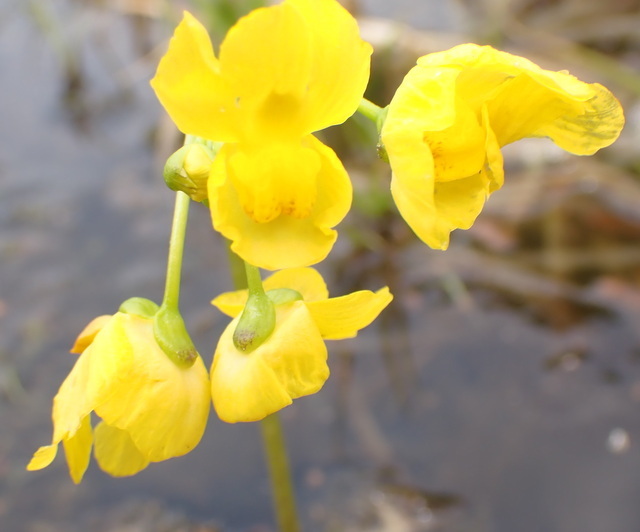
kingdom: Plantae
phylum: Tracheophyta
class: Magnoliopsida
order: Lamiales
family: Lentibulariaceae
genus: Utricularia
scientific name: Utricularia inflata
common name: Floating bladderwort
